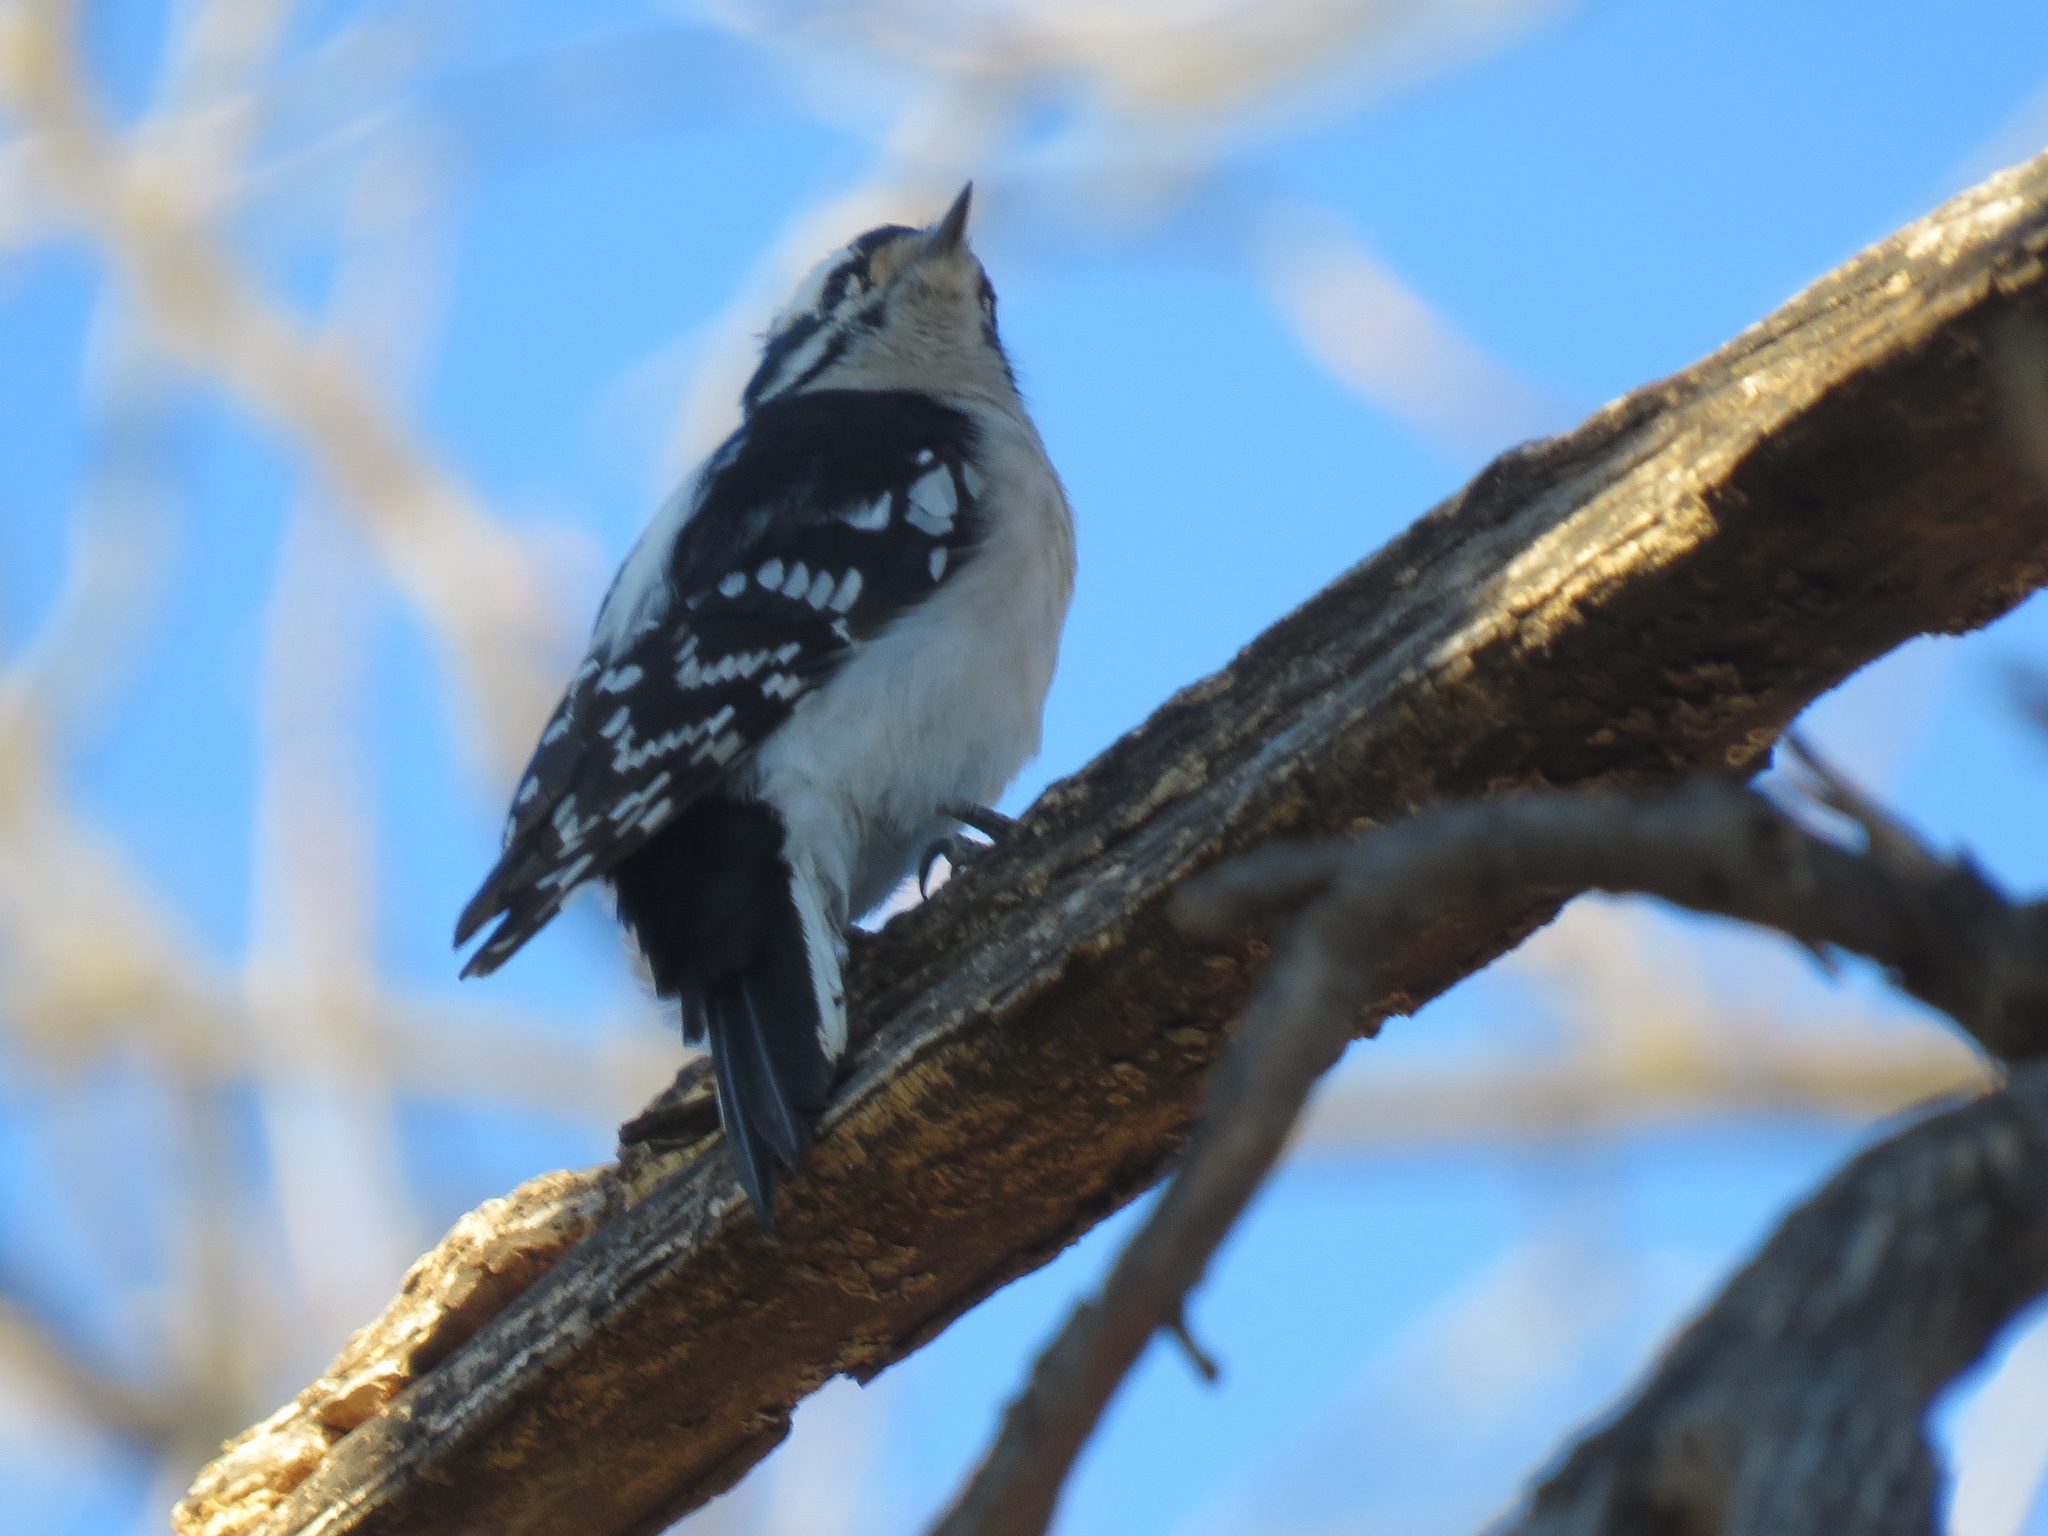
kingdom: Animalia
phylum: Chordata
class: Aves
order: Piciformes
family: Picidae
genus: Dryobates
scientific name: Dryobates pubescens
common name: Downy woodpecker
